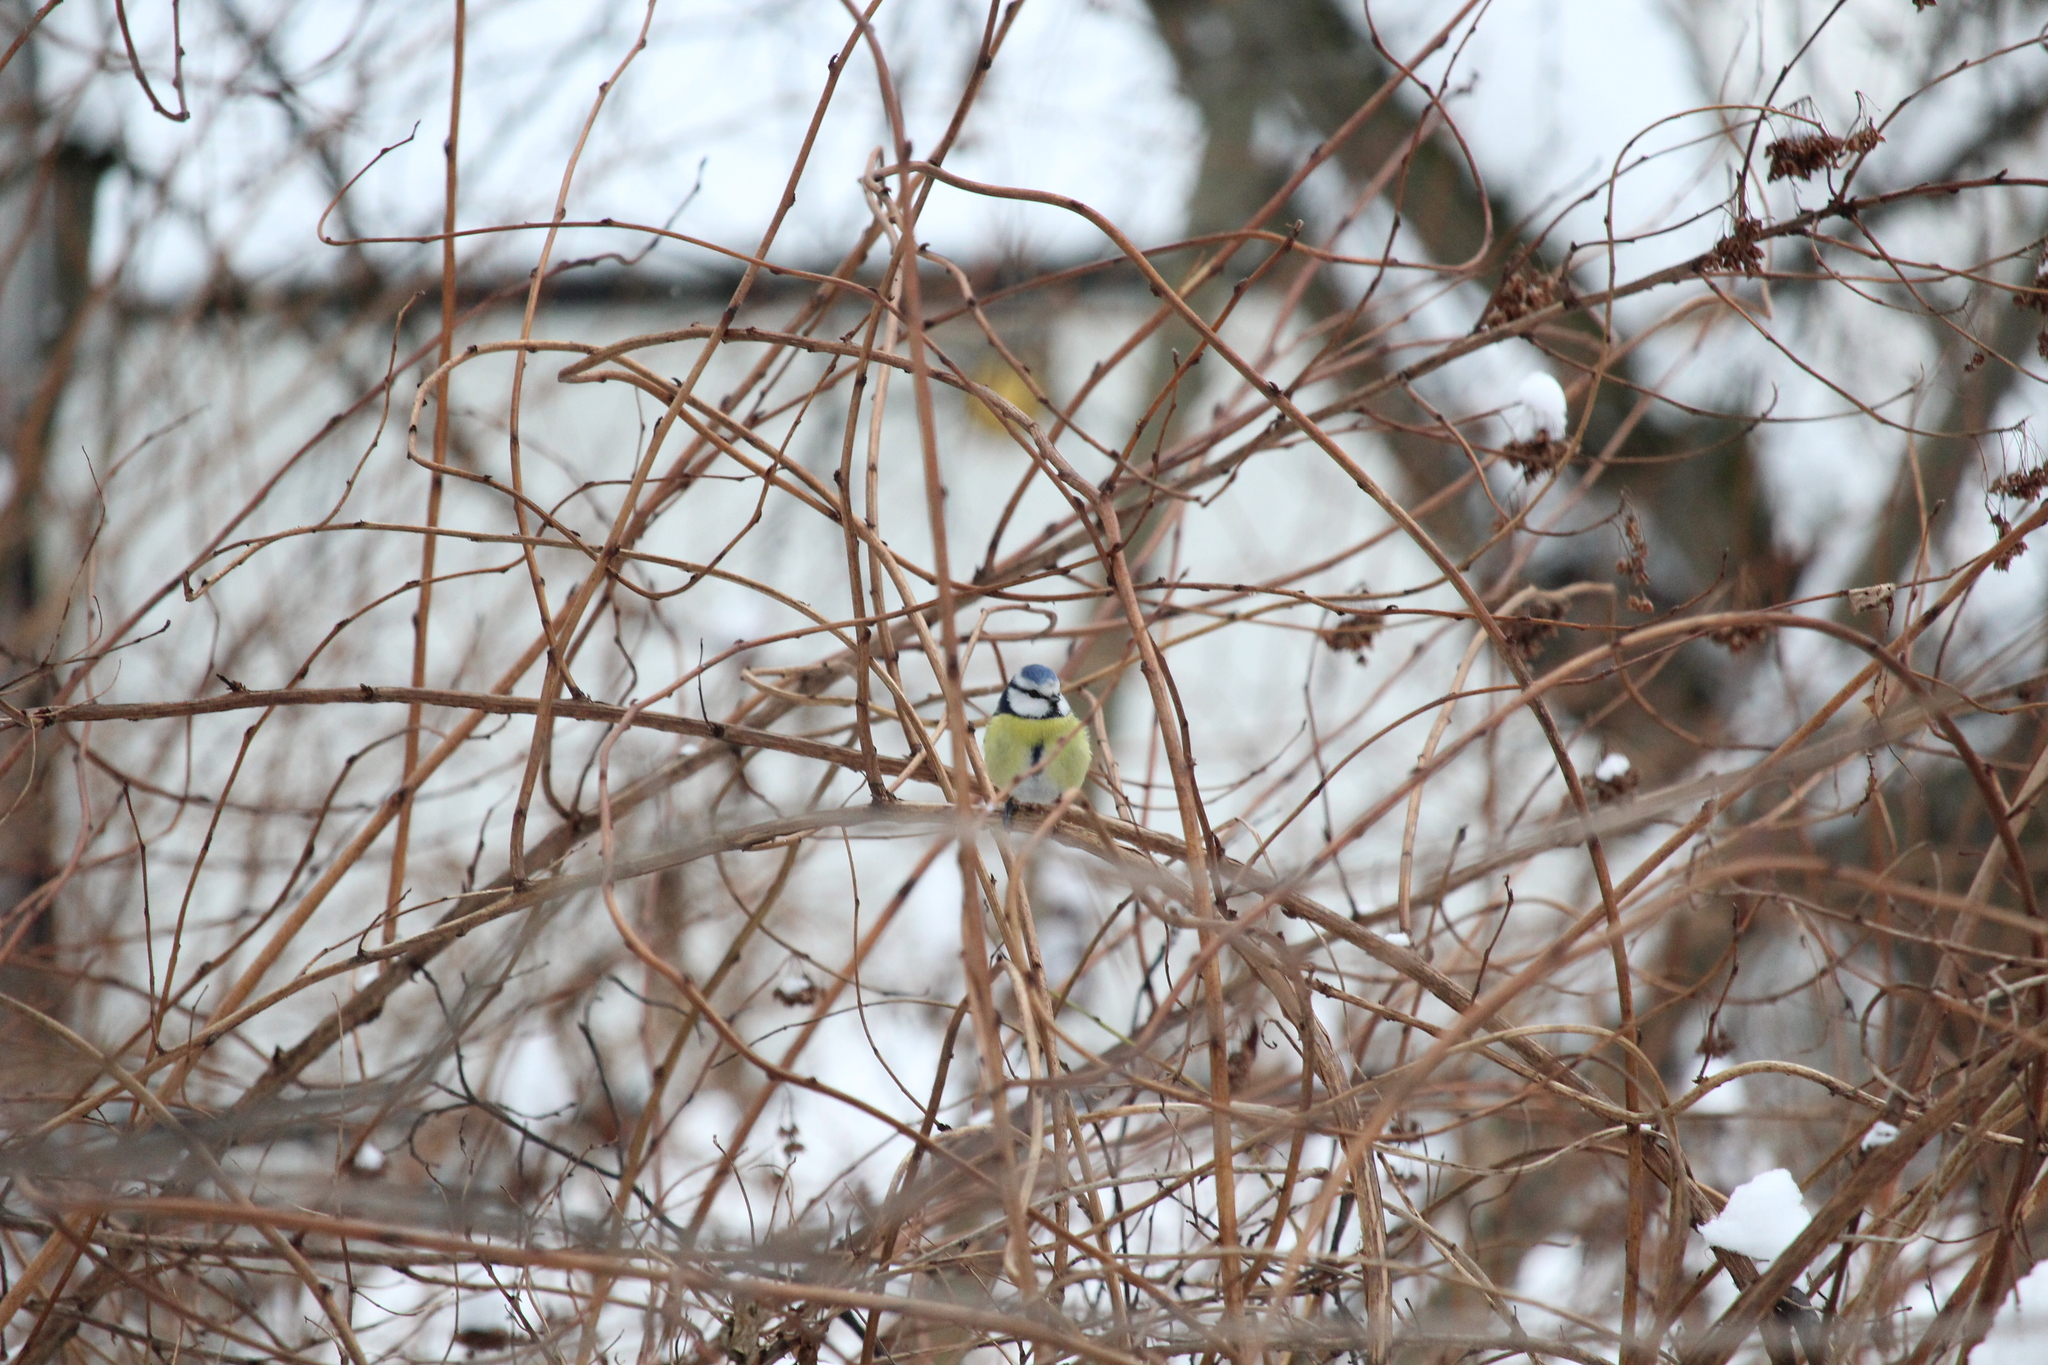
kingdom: Animalia
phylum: Chordata
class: Aves
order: Passeriformes
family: Paridae
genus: Cyanistes
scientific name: Cyanistes caeruleus
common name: Eurasian blue tit
